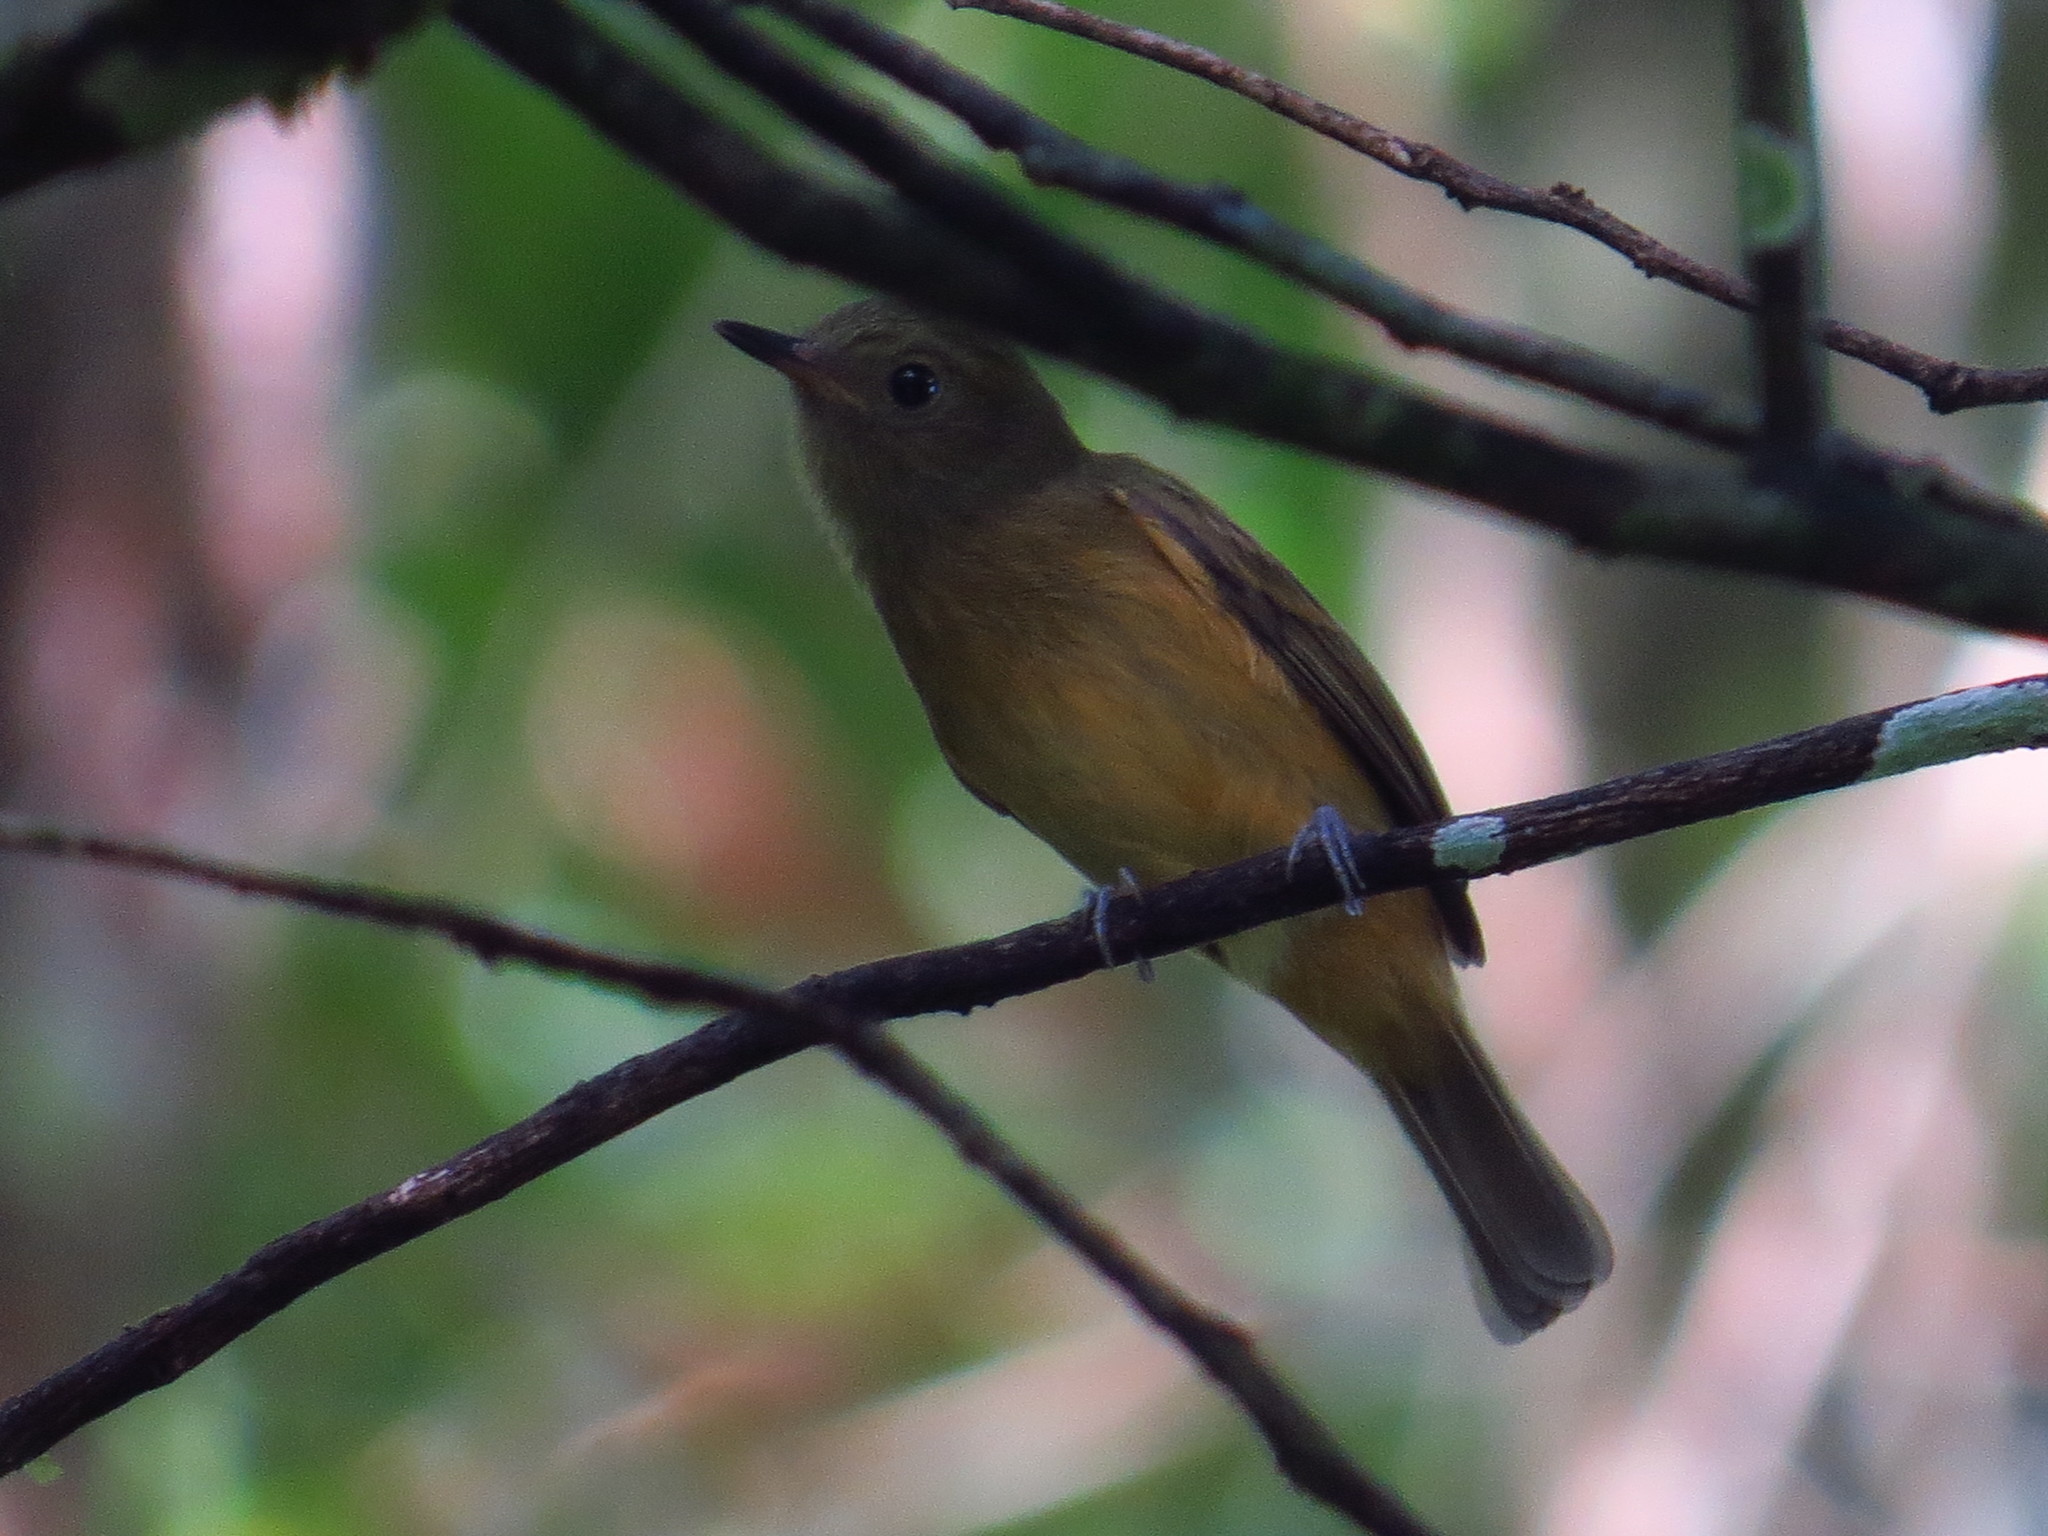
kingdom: Animalia
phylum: Chordata
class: Aves
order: Passeriformes
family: Tyrannidae
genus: Mionectes
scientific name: Mionectes oleagineus
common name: Ochre-bellied flycatcher
